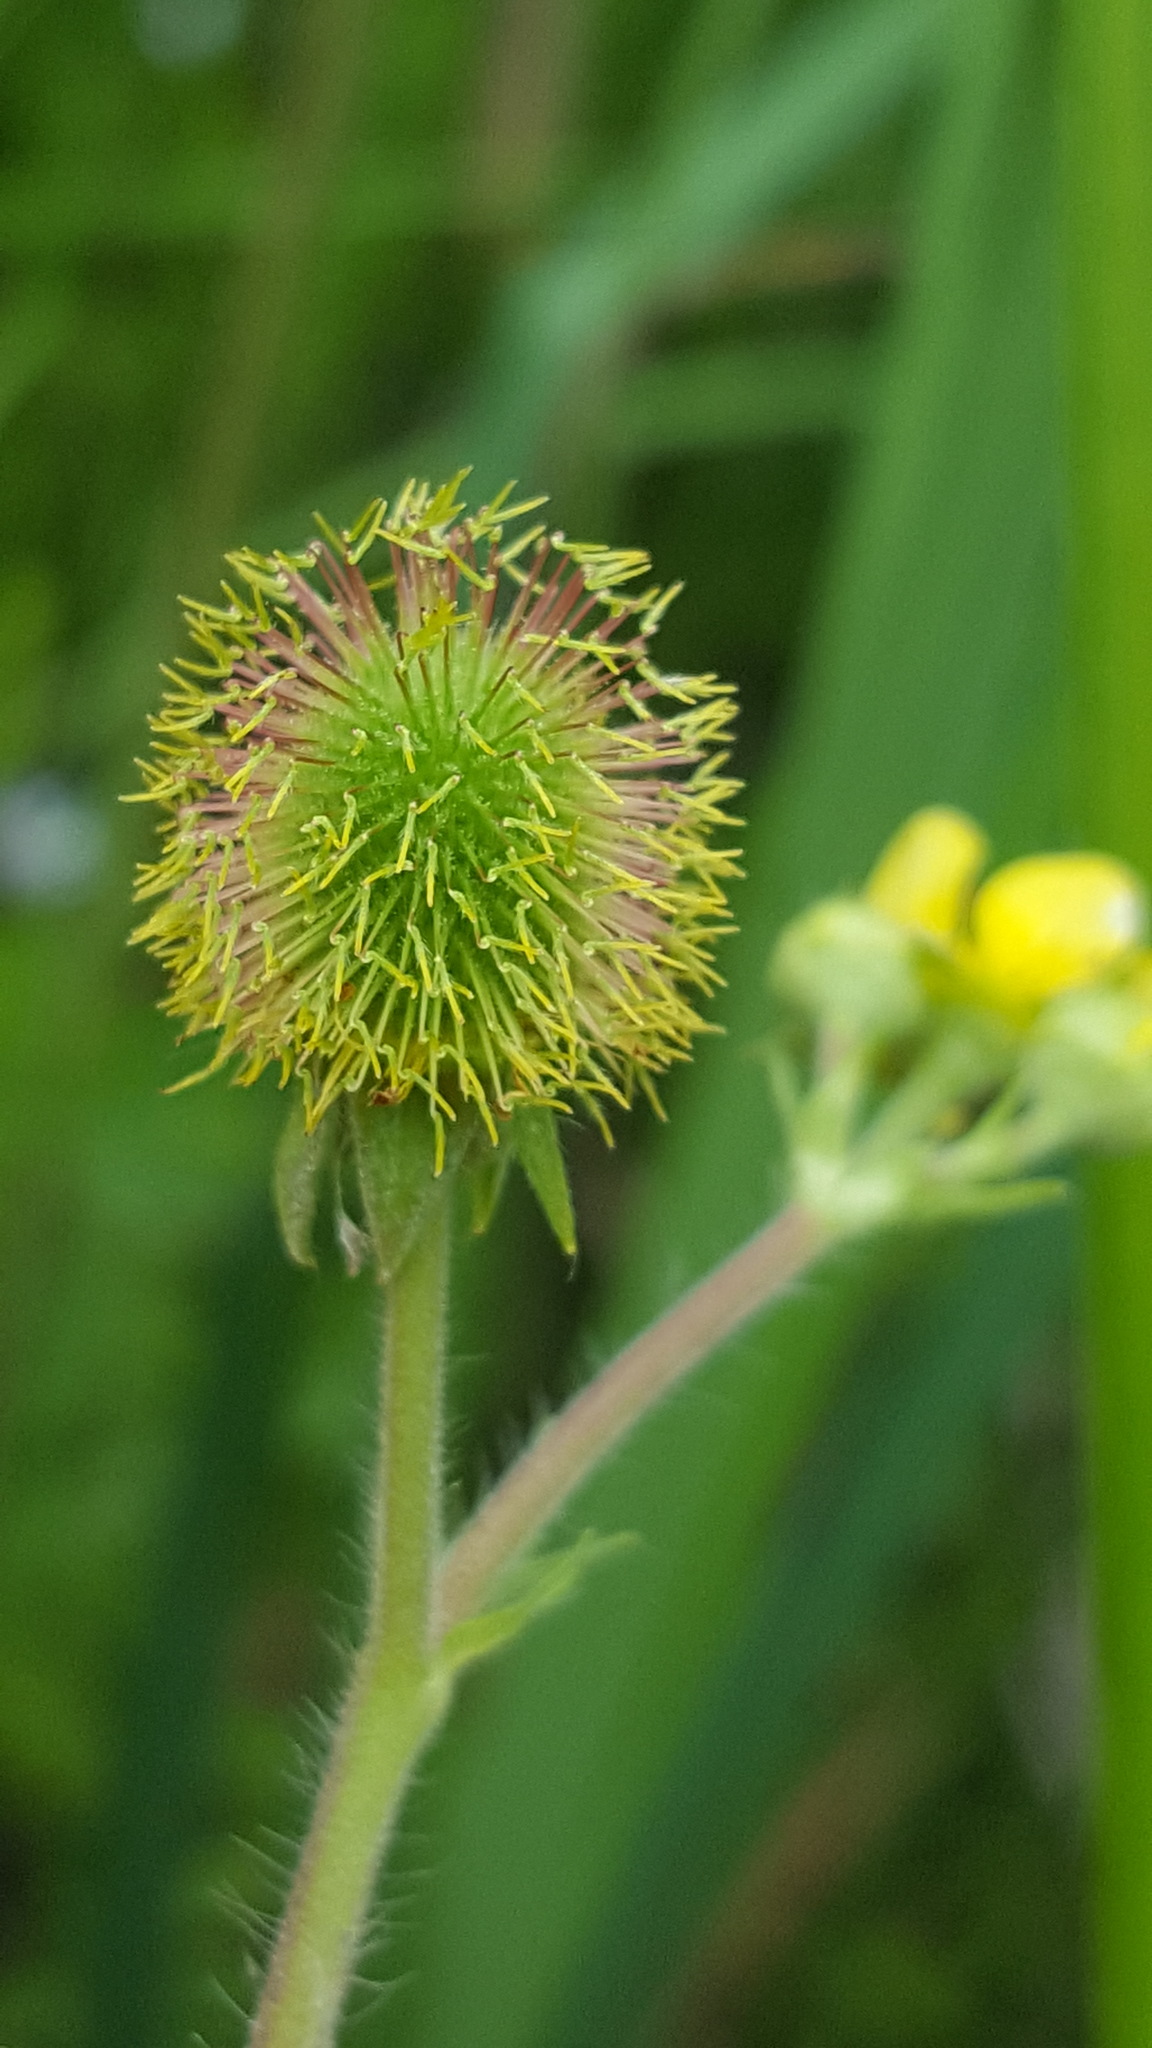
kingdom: Plantae
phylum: Tracheophyta
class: Magnoliopsida
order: Rosales
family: Rosaceae
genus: Geum
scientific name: Geum aleppicum
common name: Yellow avens
